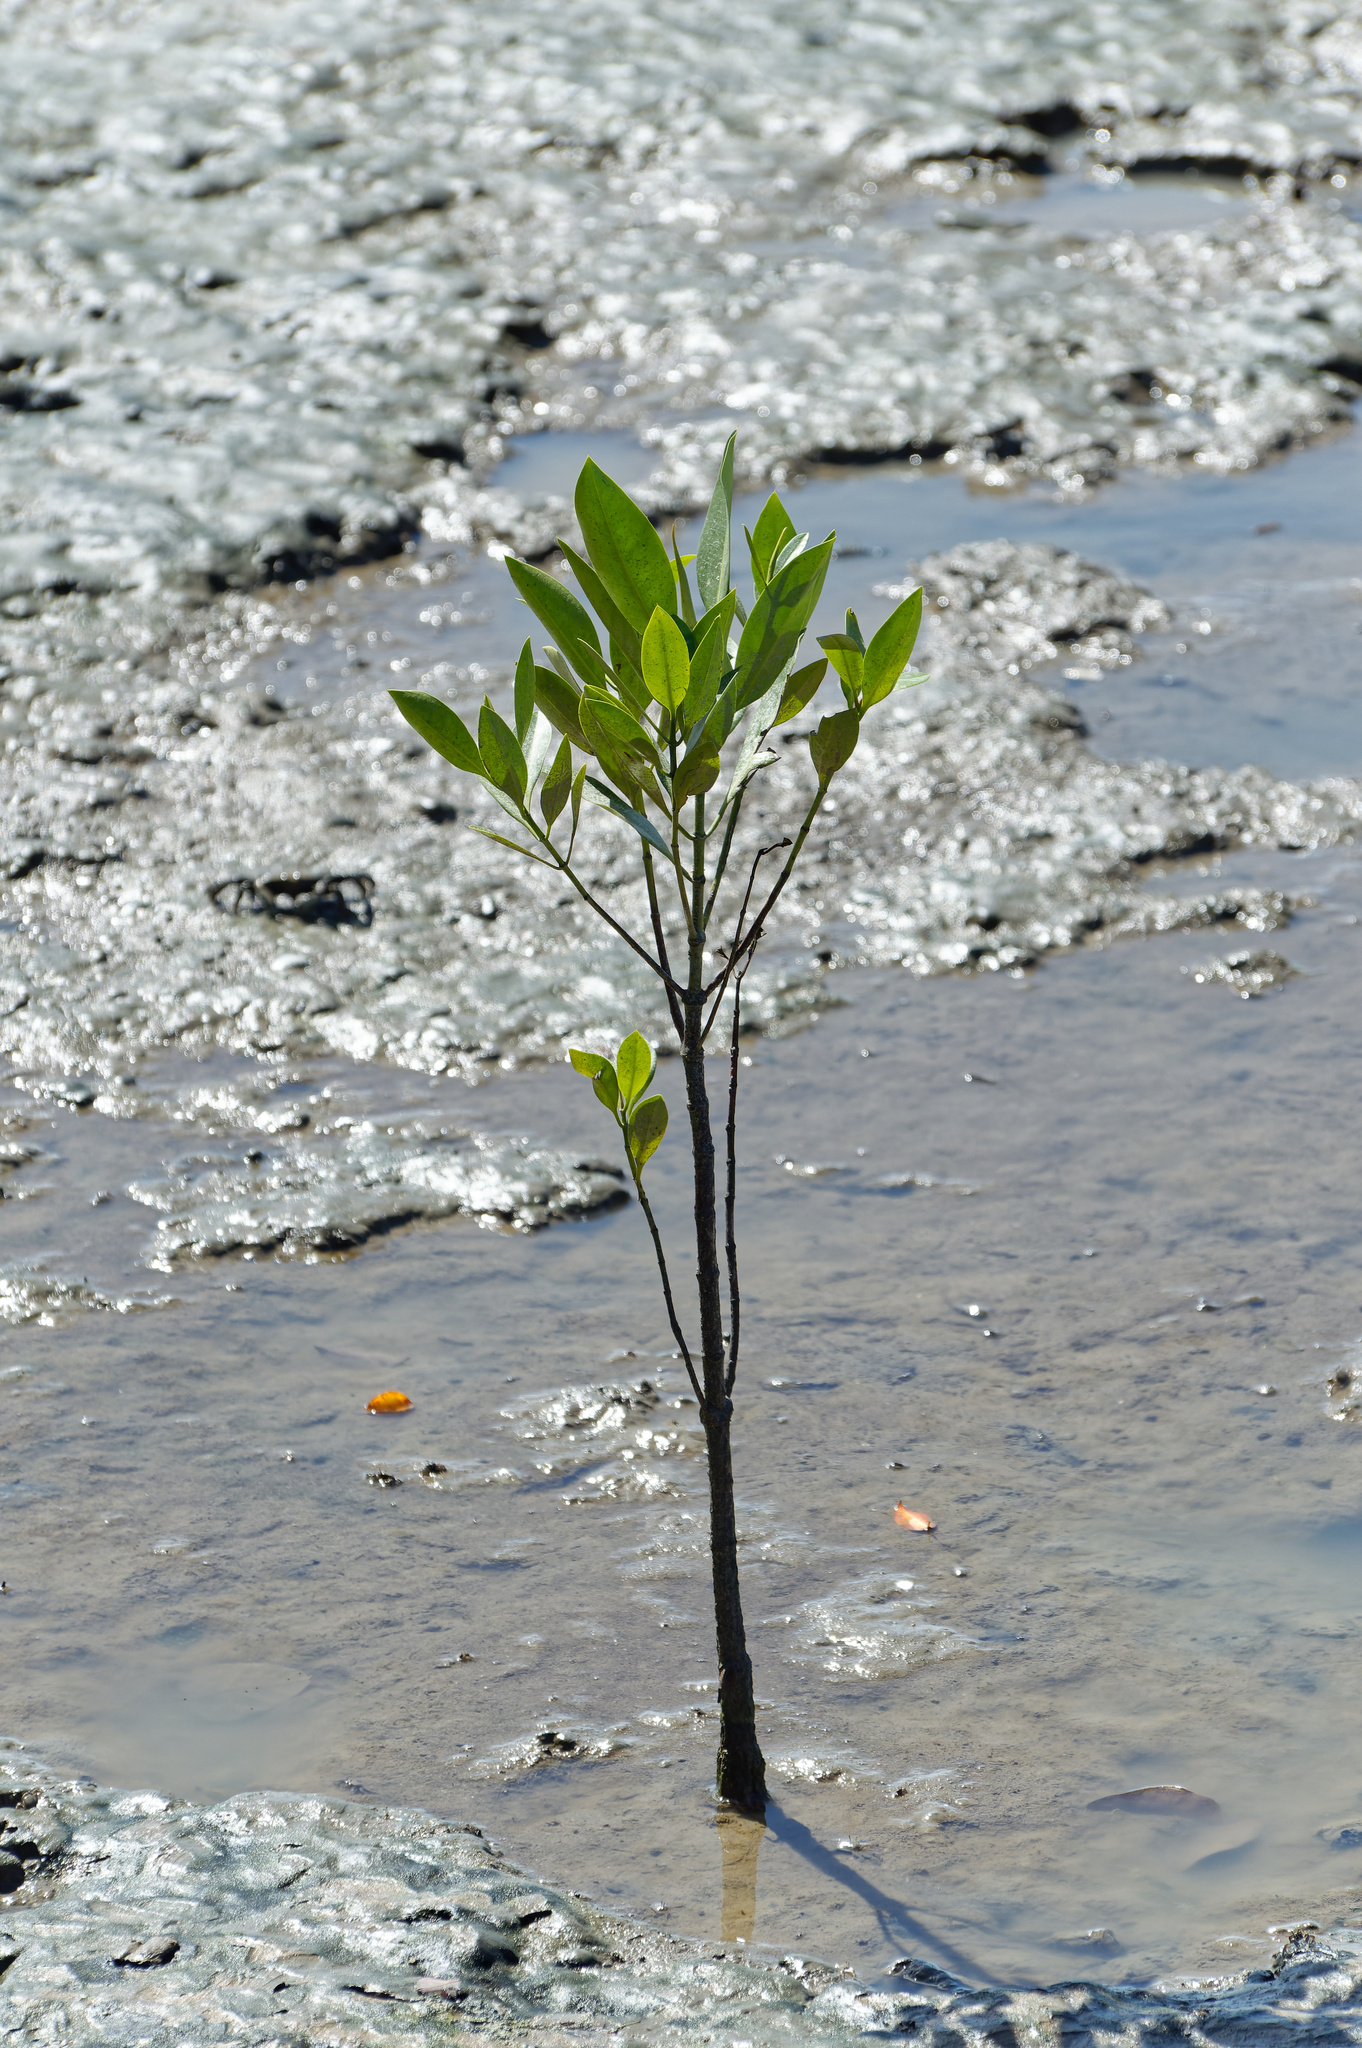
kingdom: Plantae
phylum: Tracheophyta
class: Magnoliopsida
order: Malpighiales
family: Rhizophoraceae
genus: Rhizophora
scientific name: Rhizophora apiculata
